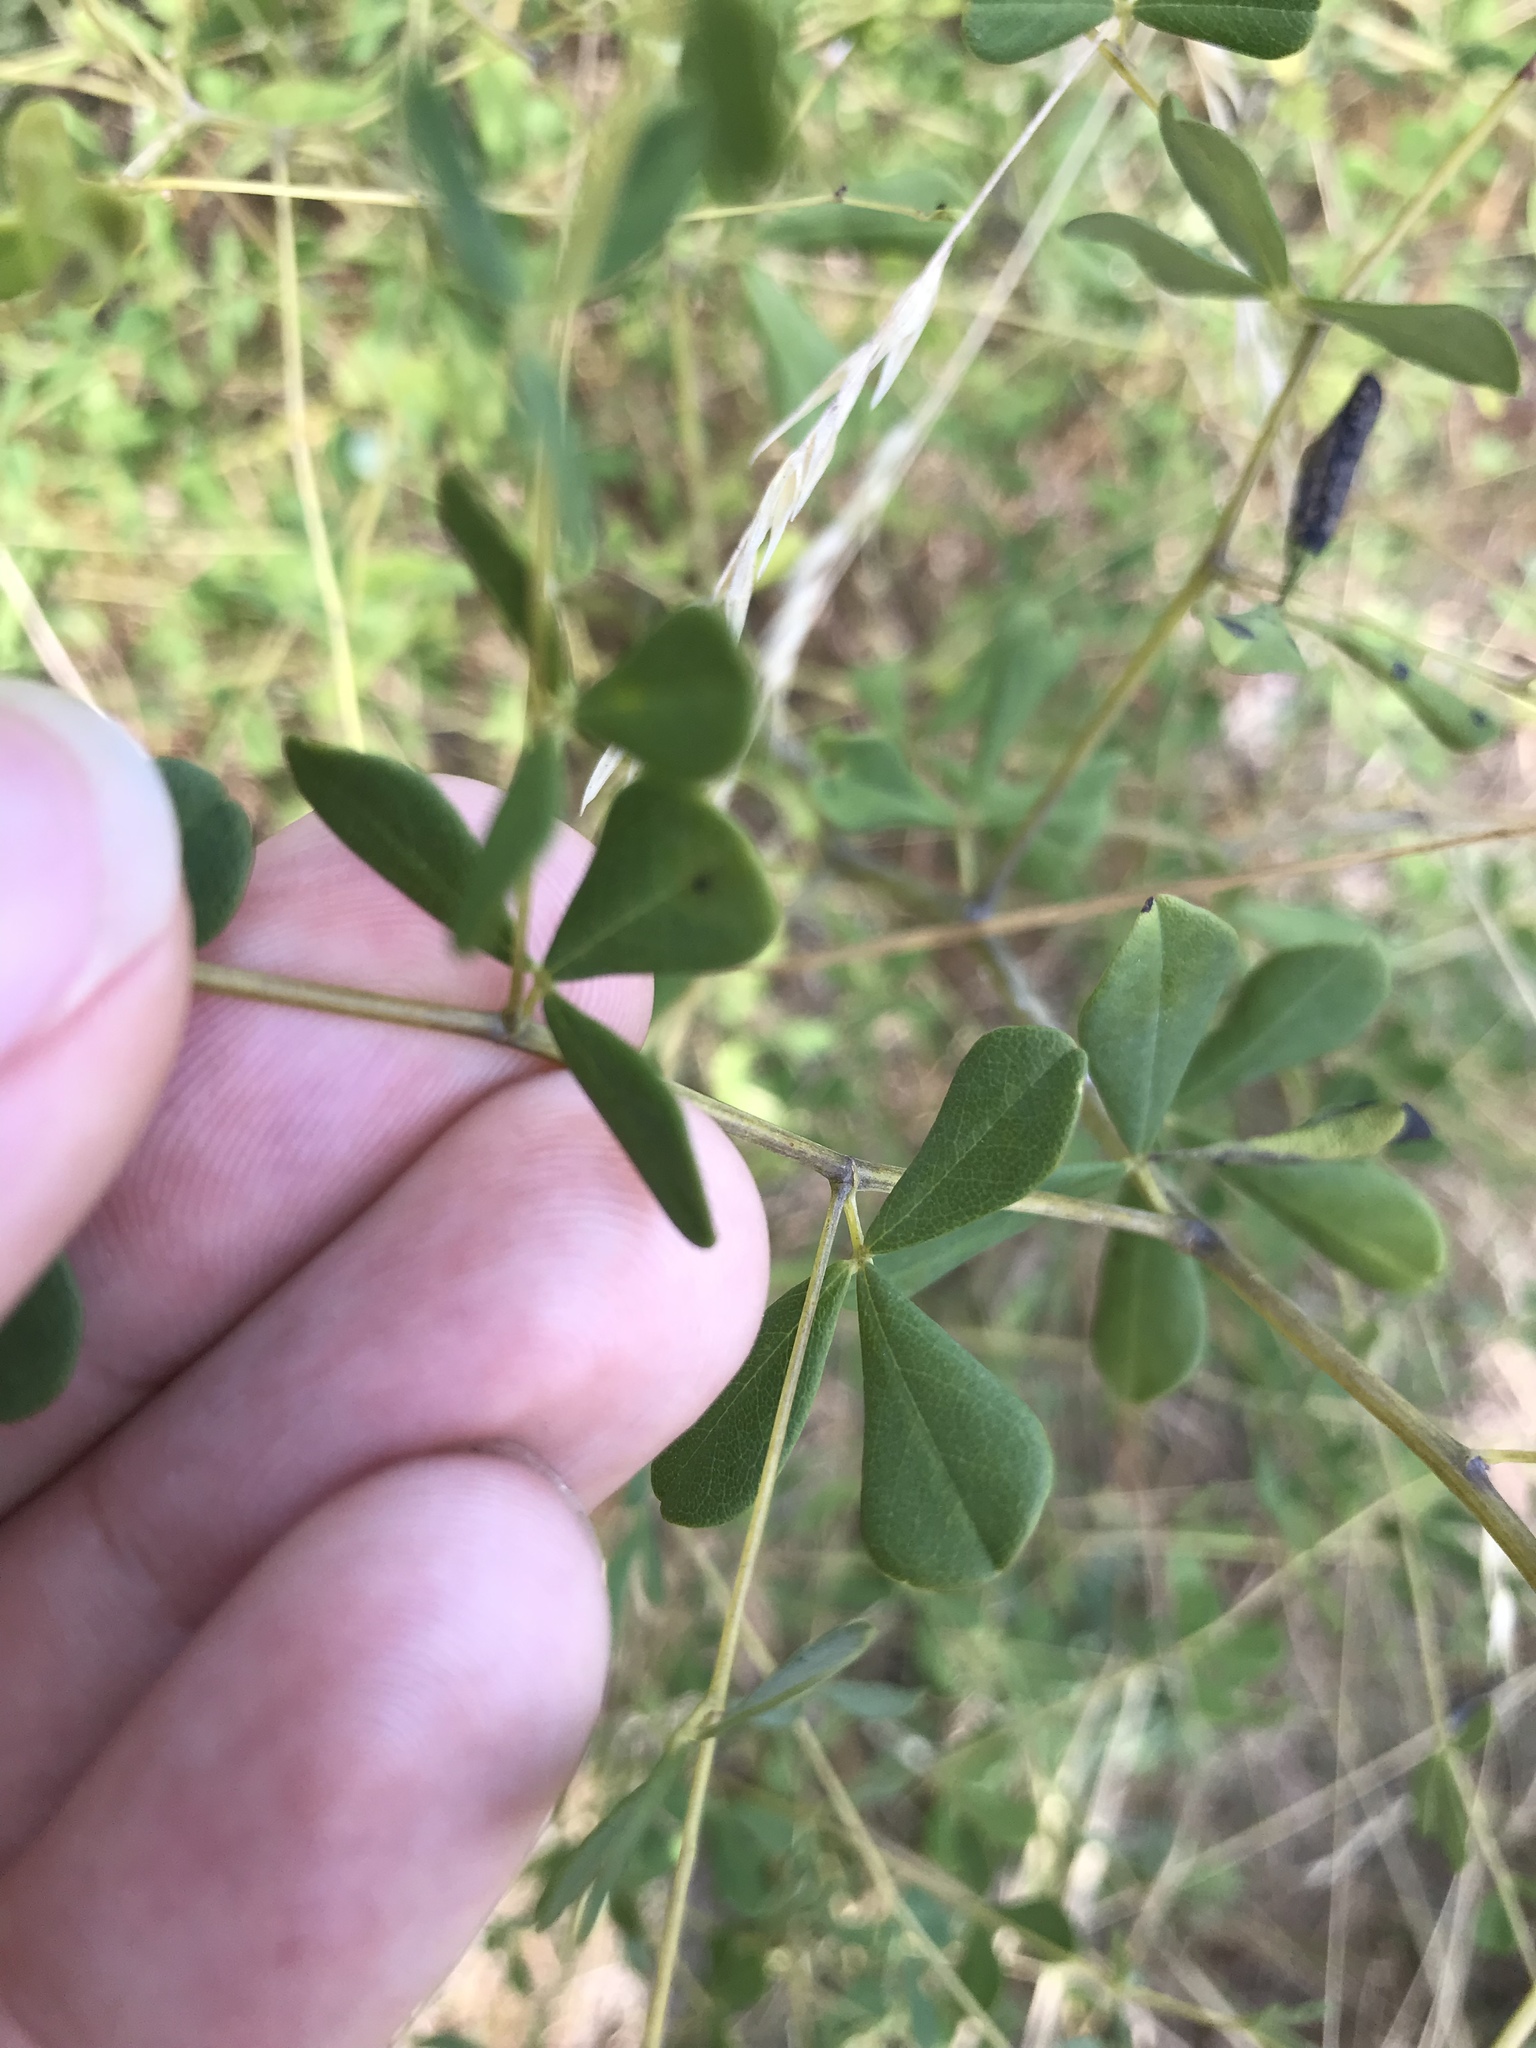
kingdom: Plantae
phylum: Tracheophyta
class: Magnoliopsida
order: Fabales
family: Fabaceae
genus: Baptisia
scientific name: Baptisia tinctoria
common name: Wild indigo
